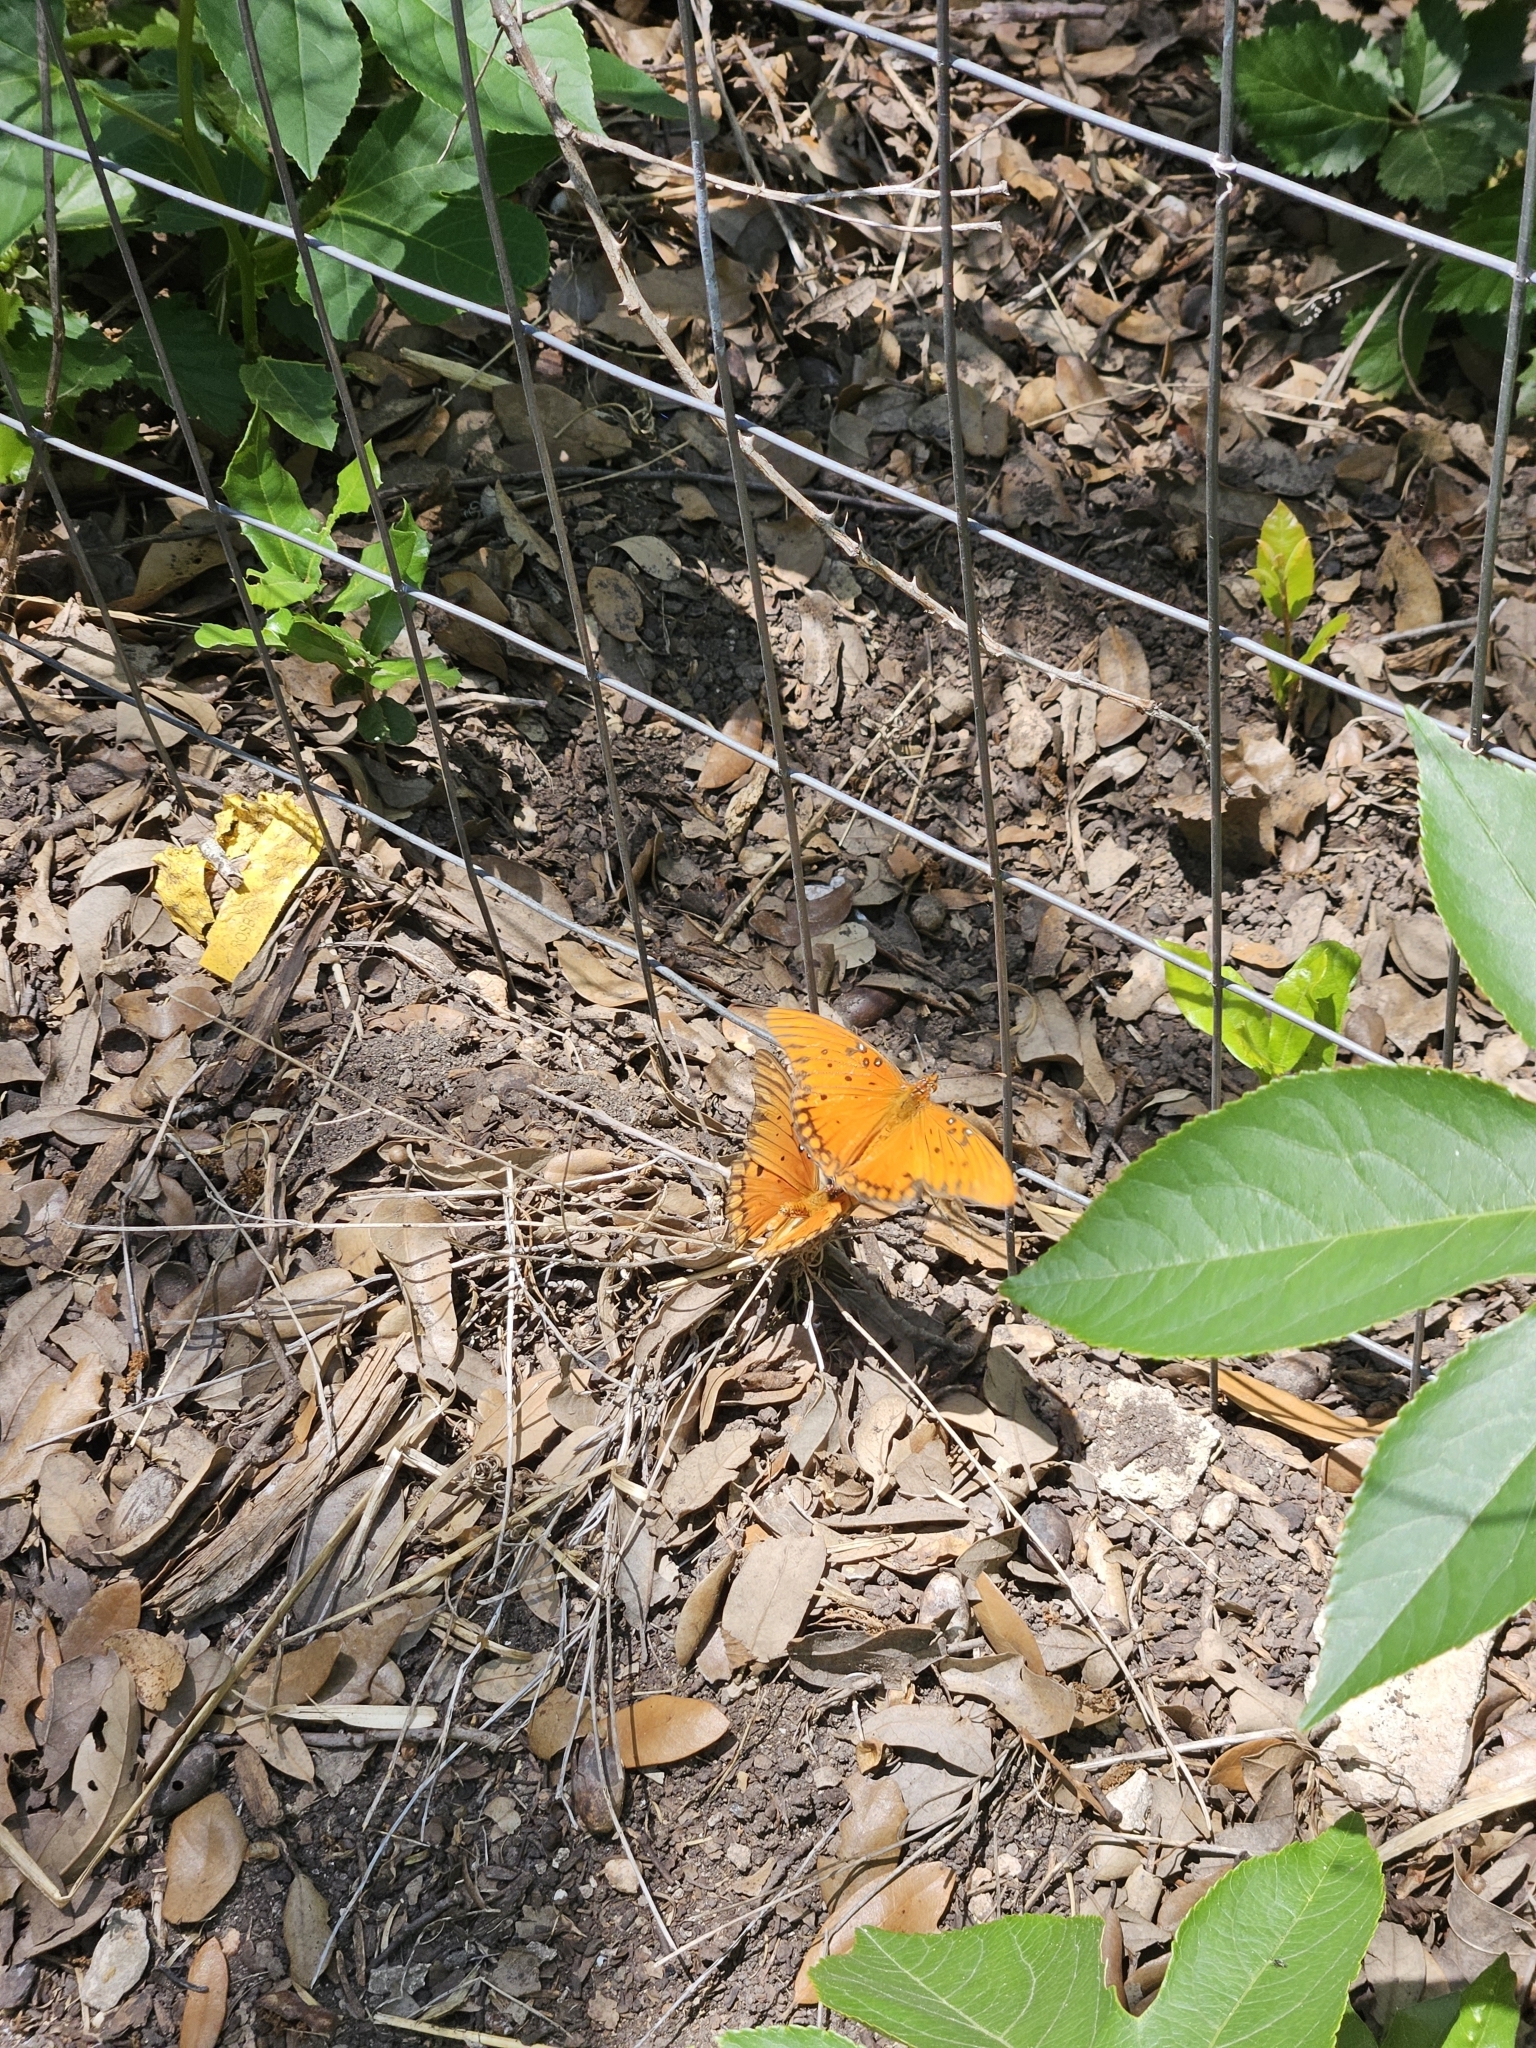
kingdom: Animalia
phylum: Arthropoda
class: Insecta
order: Lepidoptera
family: Nymphalidae
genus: Dione
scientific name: Dione vanillae
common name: Gulf fritillary
